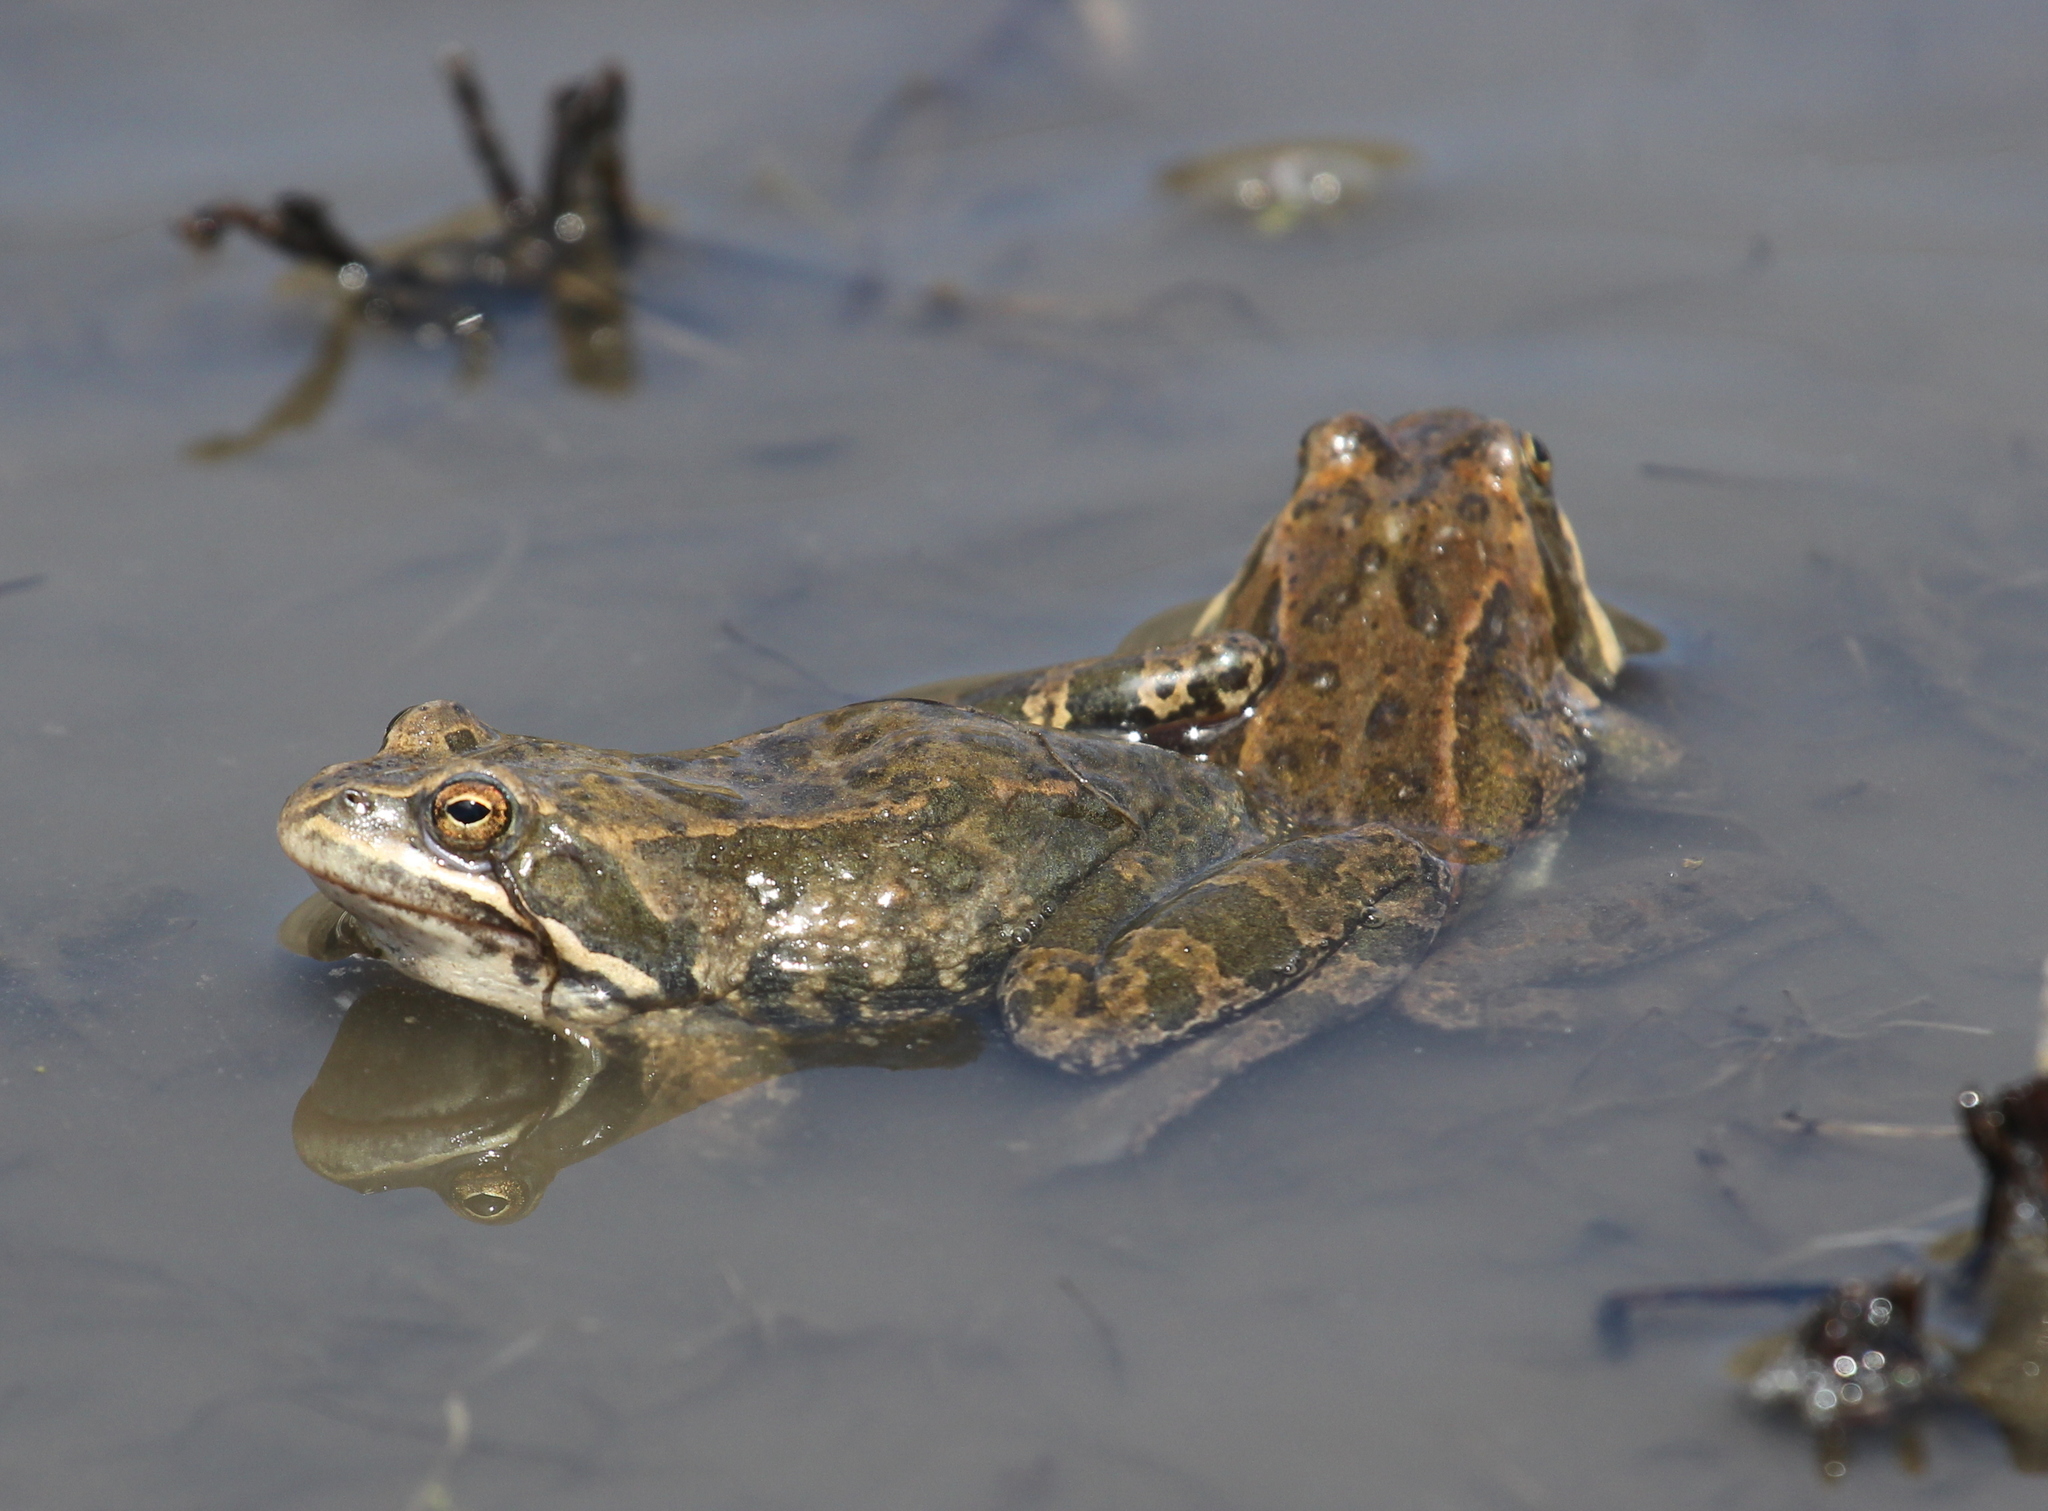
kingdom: Animalia
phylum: Chordata
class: Amphibia
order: Anura
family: Ranidae
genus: Rana
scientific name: Rana macrocnemis
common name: Banded frog
